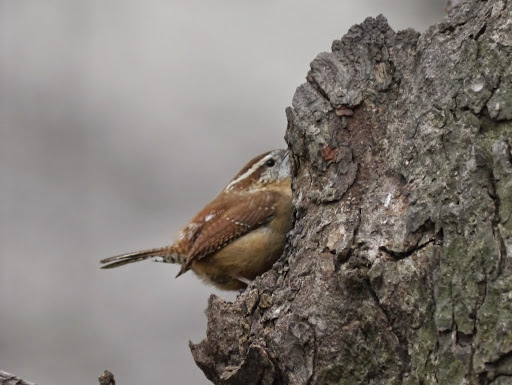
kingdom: Animalia
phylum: Chordata
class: Aves
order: Passeriformes
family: Troglodytidae
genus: Thryothorus
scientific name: Thryothorus ludovicianus
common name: Carolina wren
